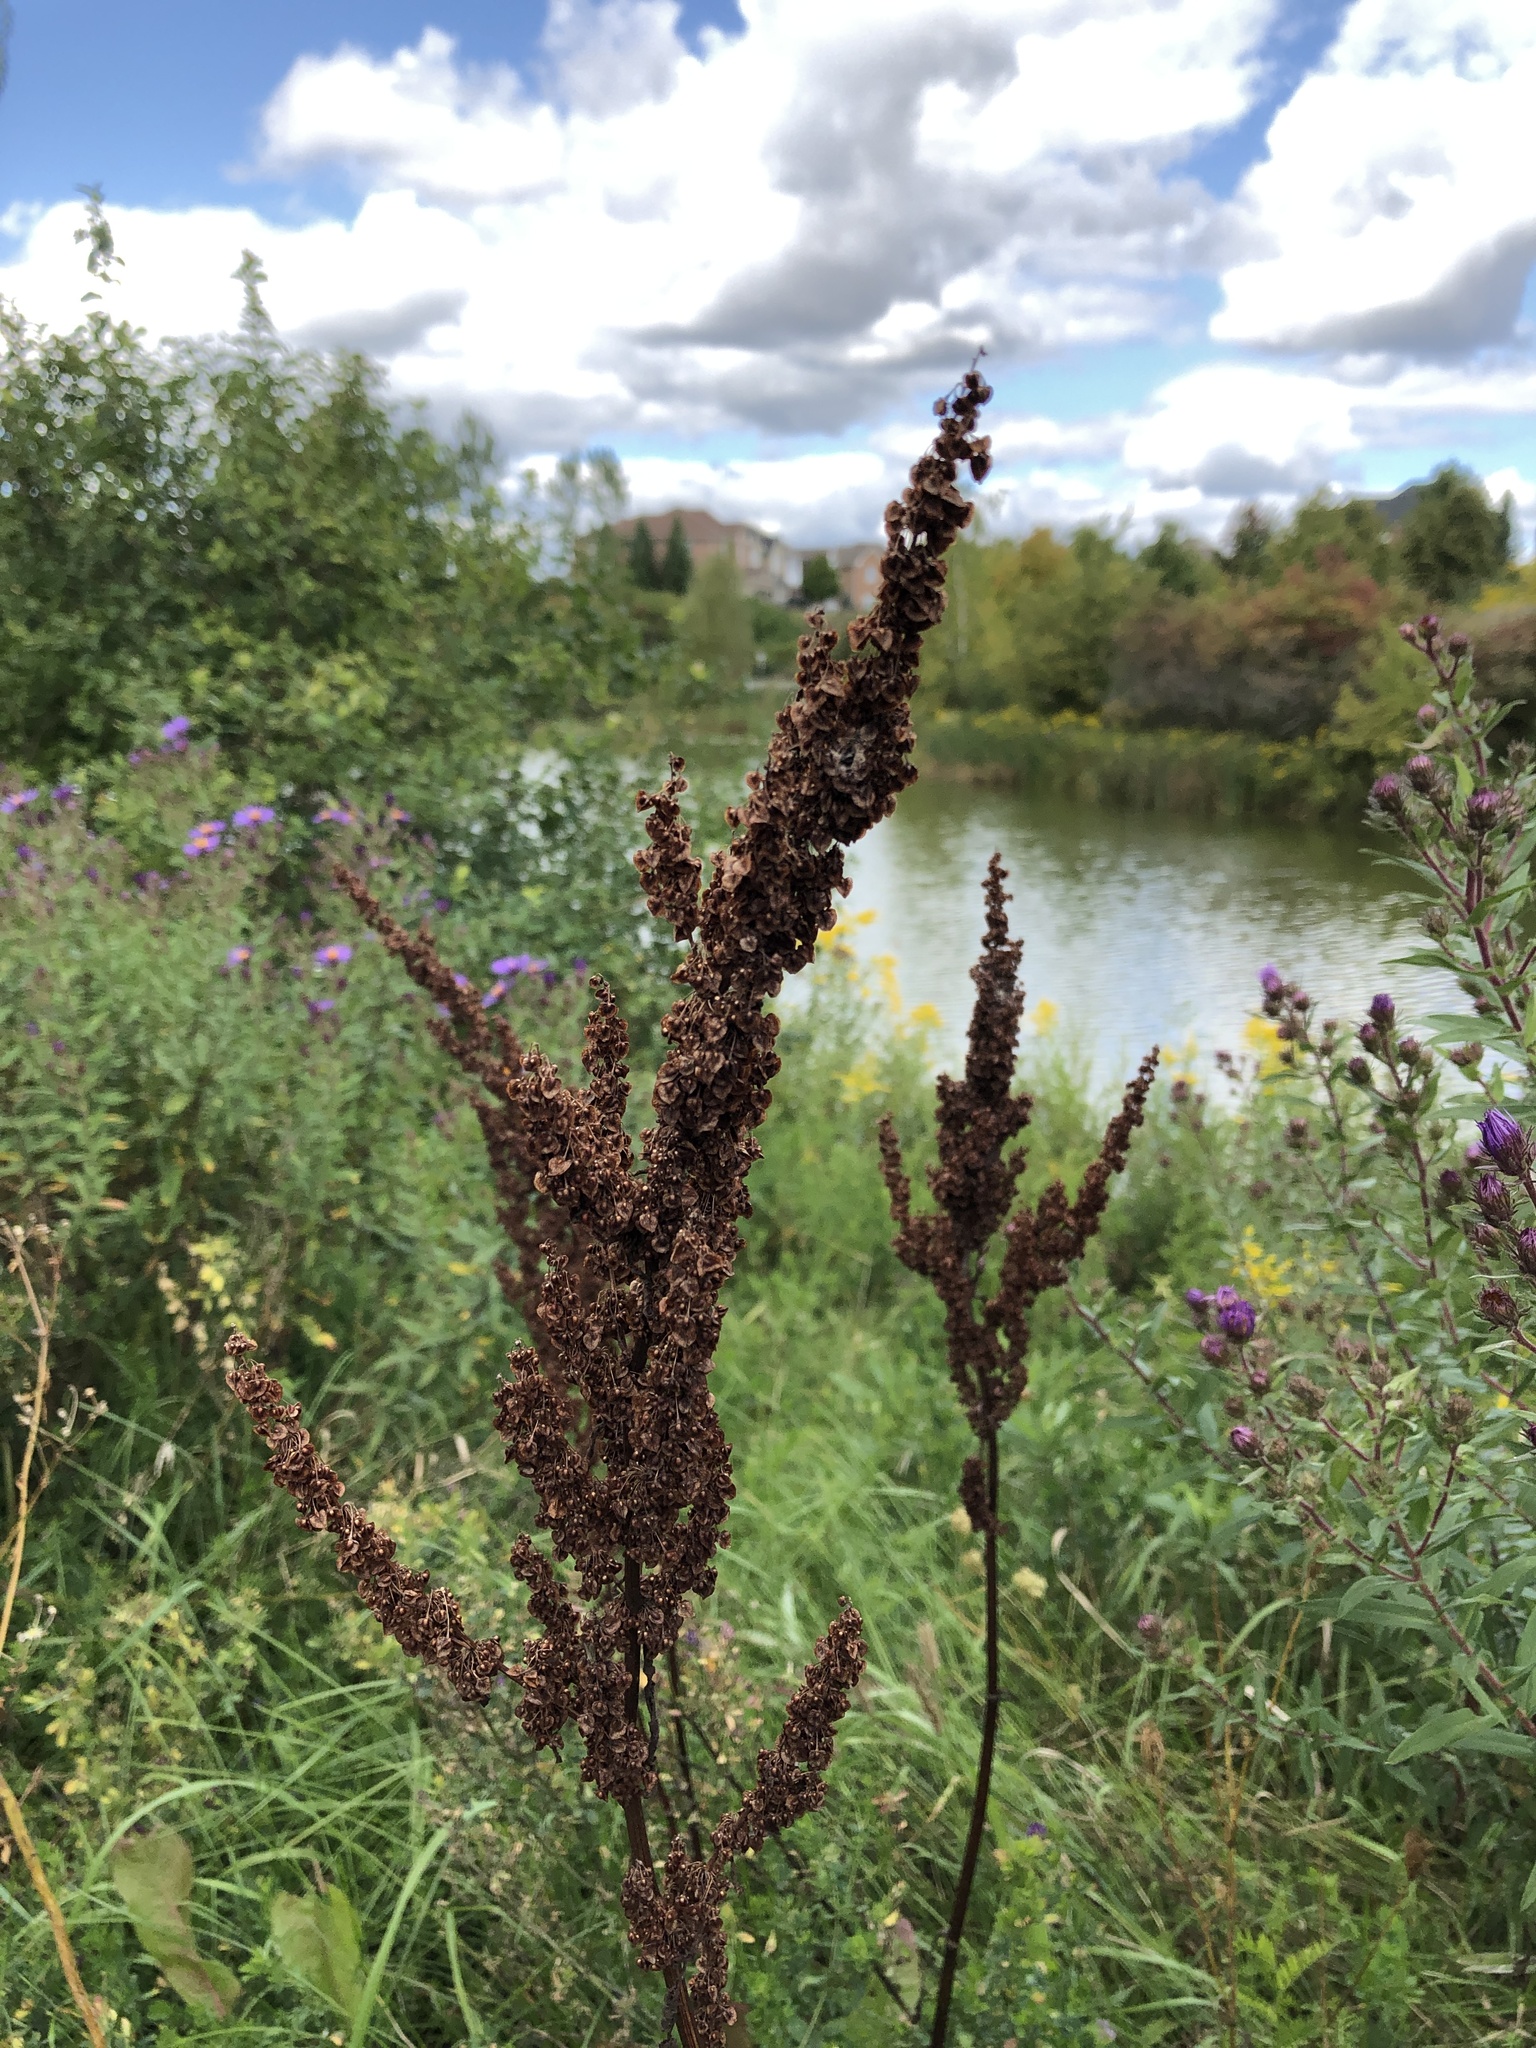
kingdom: Plantae
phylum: Tracheophyta
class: Magnoliopsida
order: Caryophyllales
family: Polygonaceae
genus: Rumex
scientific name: Rumex crispus
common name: Curled dock
